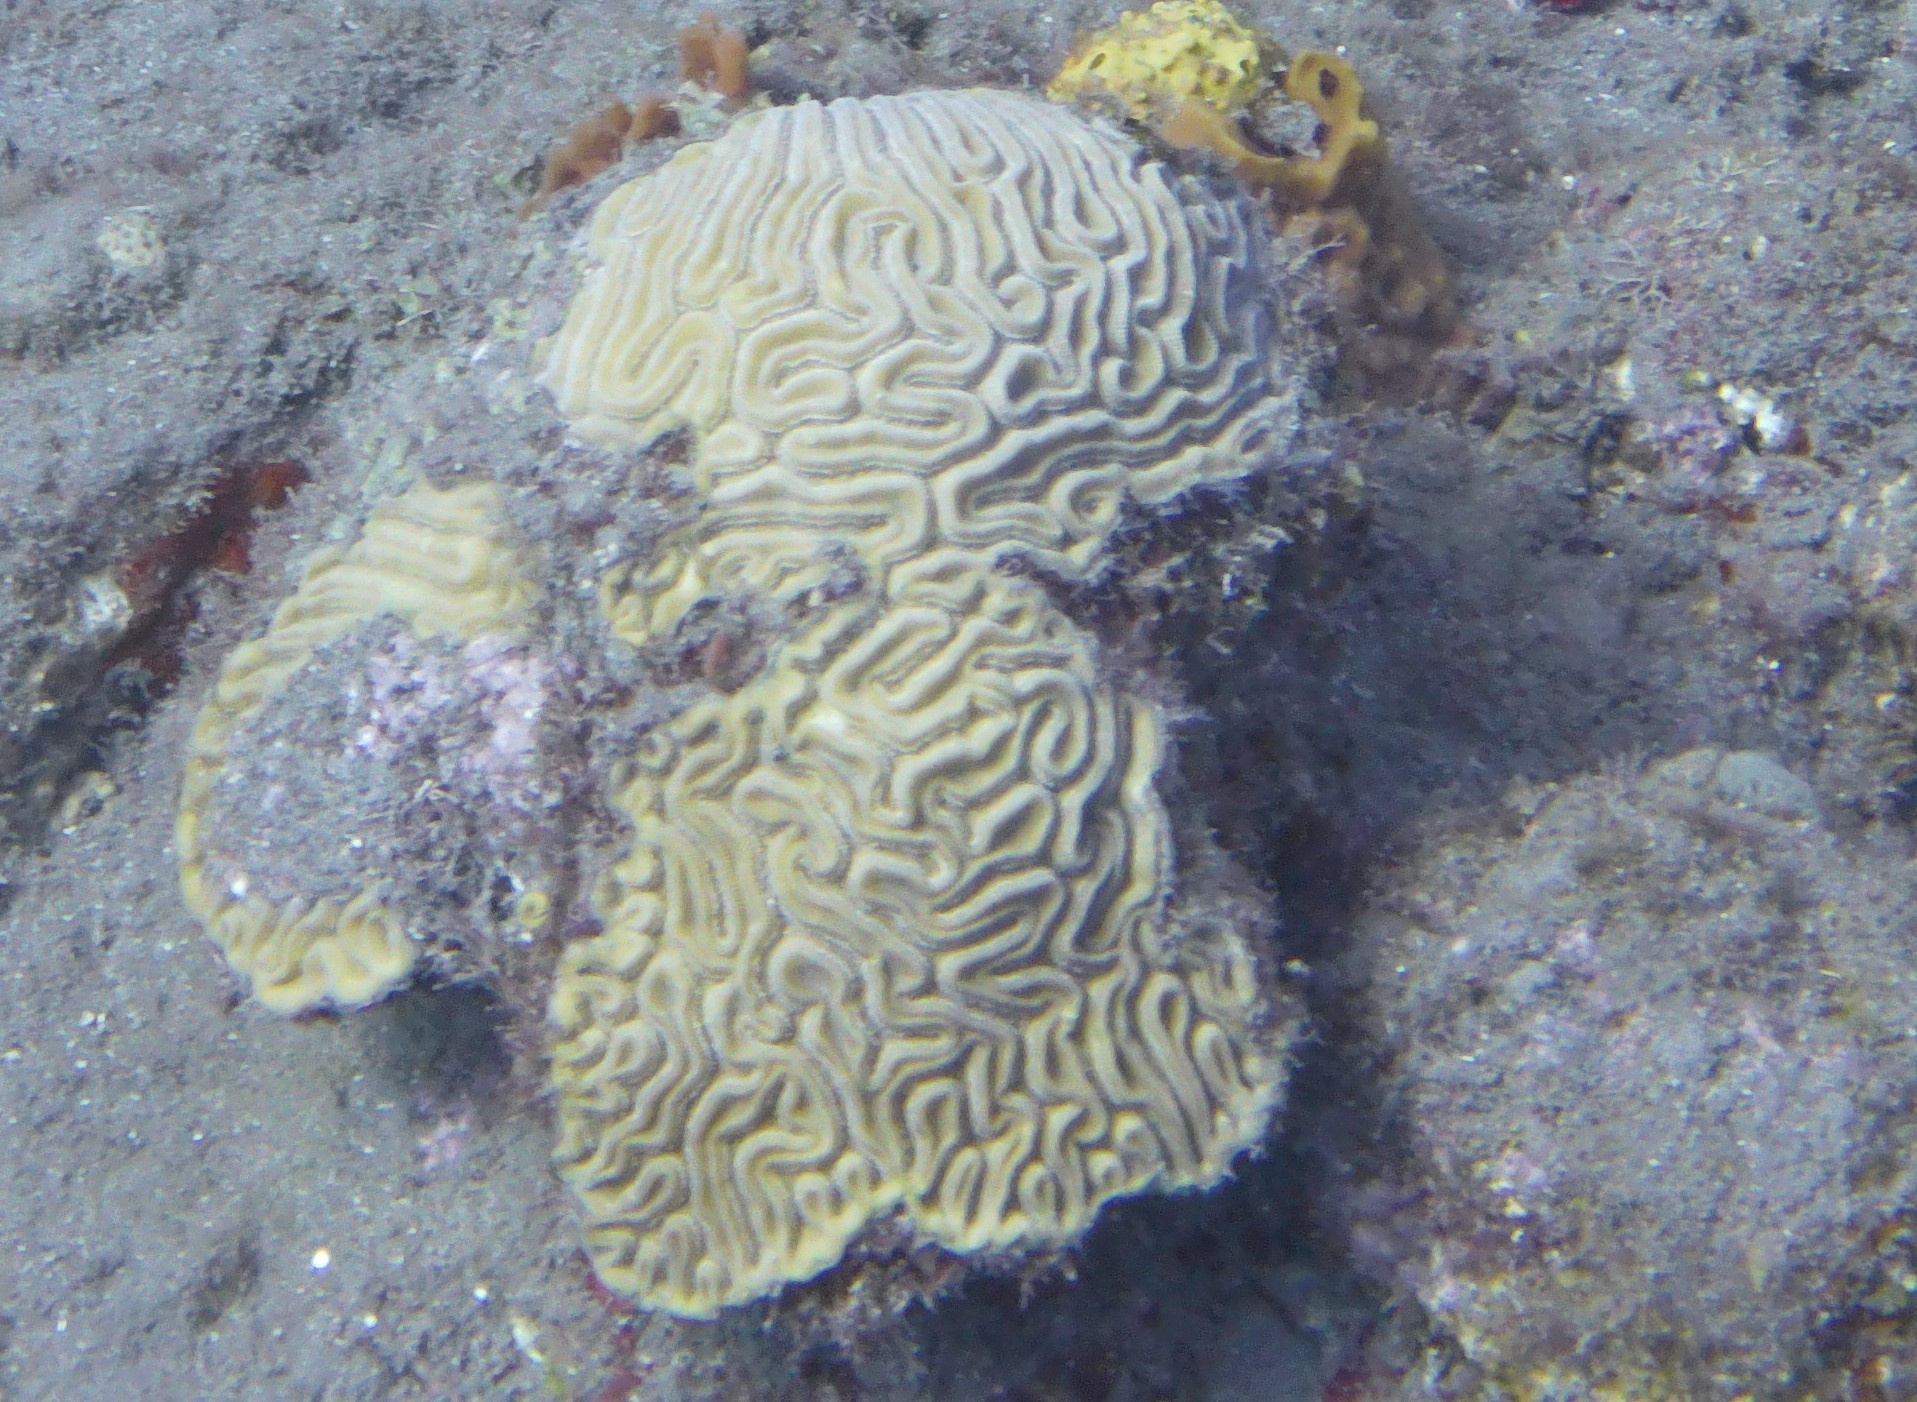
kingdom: Animalia
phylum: Cnidaria
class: Anthozoa
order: Scleractinia
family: Faviidae
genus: Diploria
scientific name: Diploria labyrinthiformis
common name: Grooved brain coral
